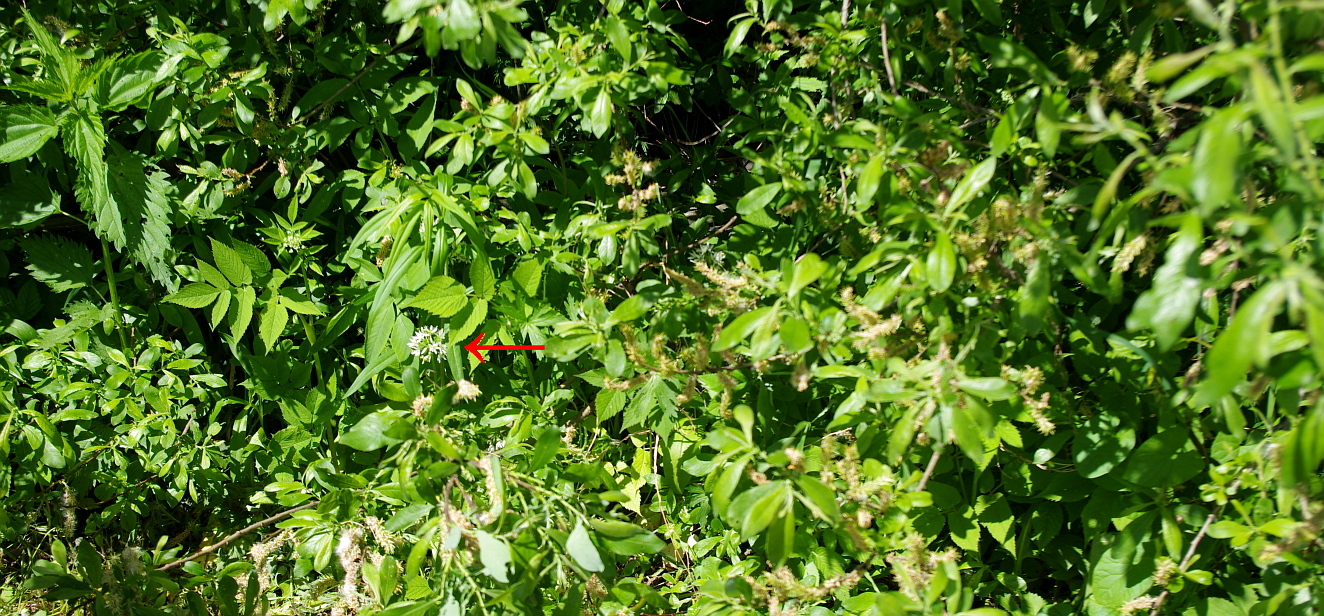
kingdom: Plantae
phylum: Tracheophyta
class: Liliopsida
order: Asparagales
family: Amaryllidaceae
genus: Allium
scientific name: Allium ursinum
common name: Ramsons
